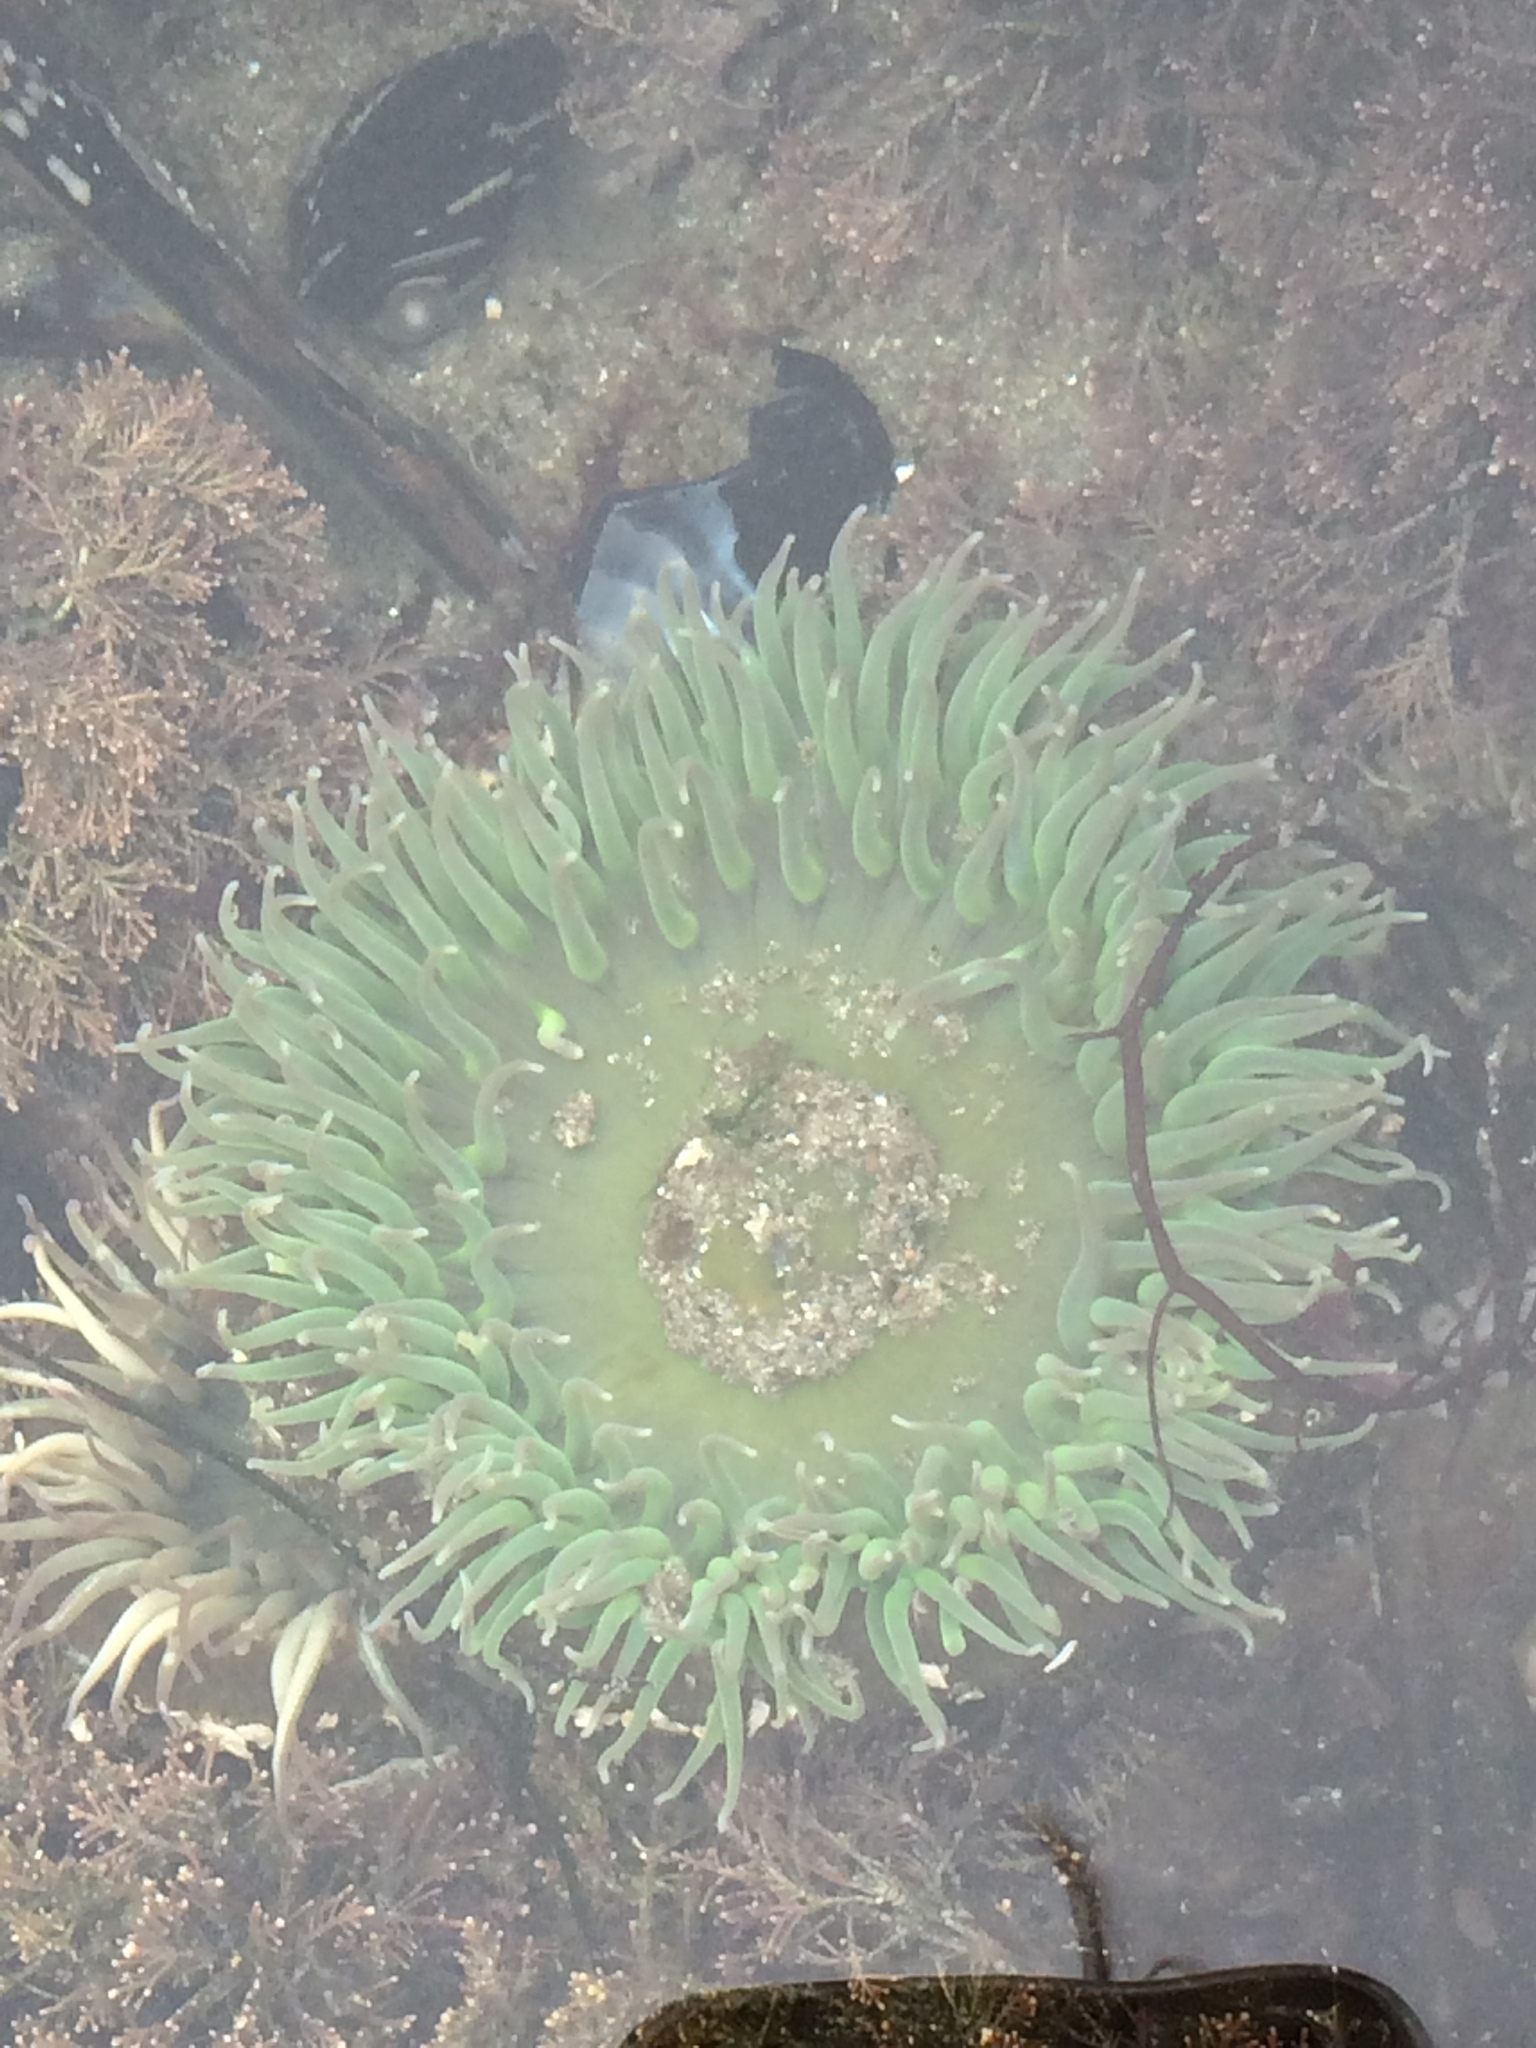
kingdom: Animalia
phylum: Cnidaria
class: Anthozoa
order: Actiniaria
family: Actiniidae
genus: Anthopleura
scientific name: Anthopleura xanthogrammica
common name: Giant green anemone
